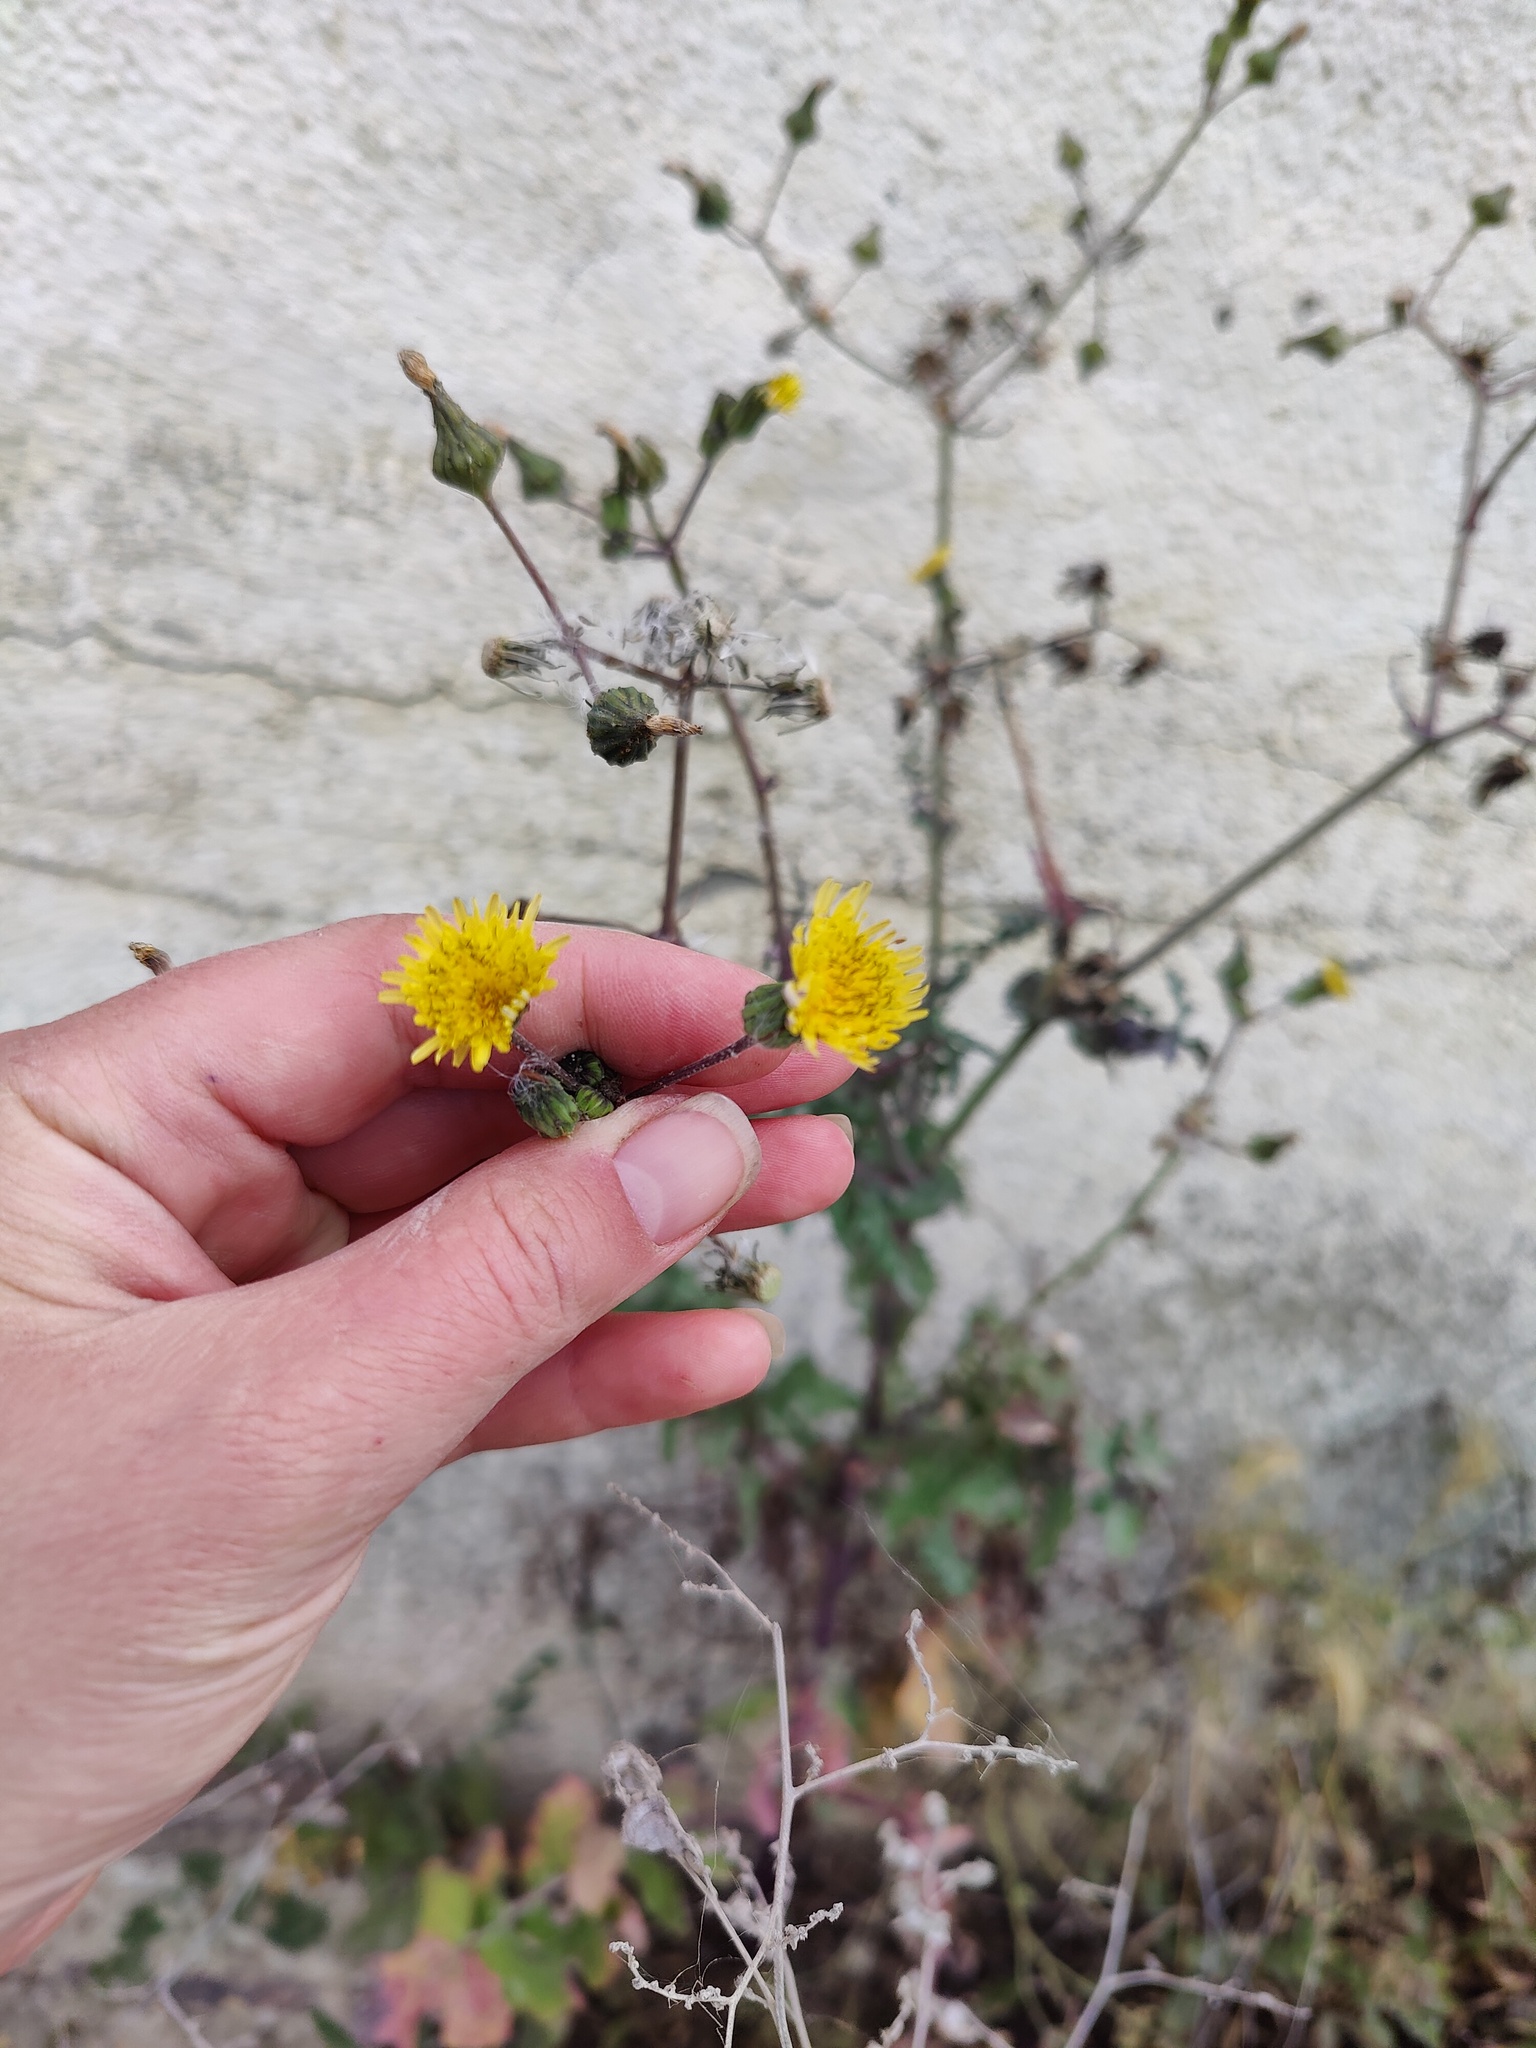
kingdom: Plantae
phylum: Tracheophyta
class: Magnoliopsida
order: Asterales
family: Asteraceae
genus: Sonchus
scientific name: Sonchus oleraceus
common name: Common sowthistle
